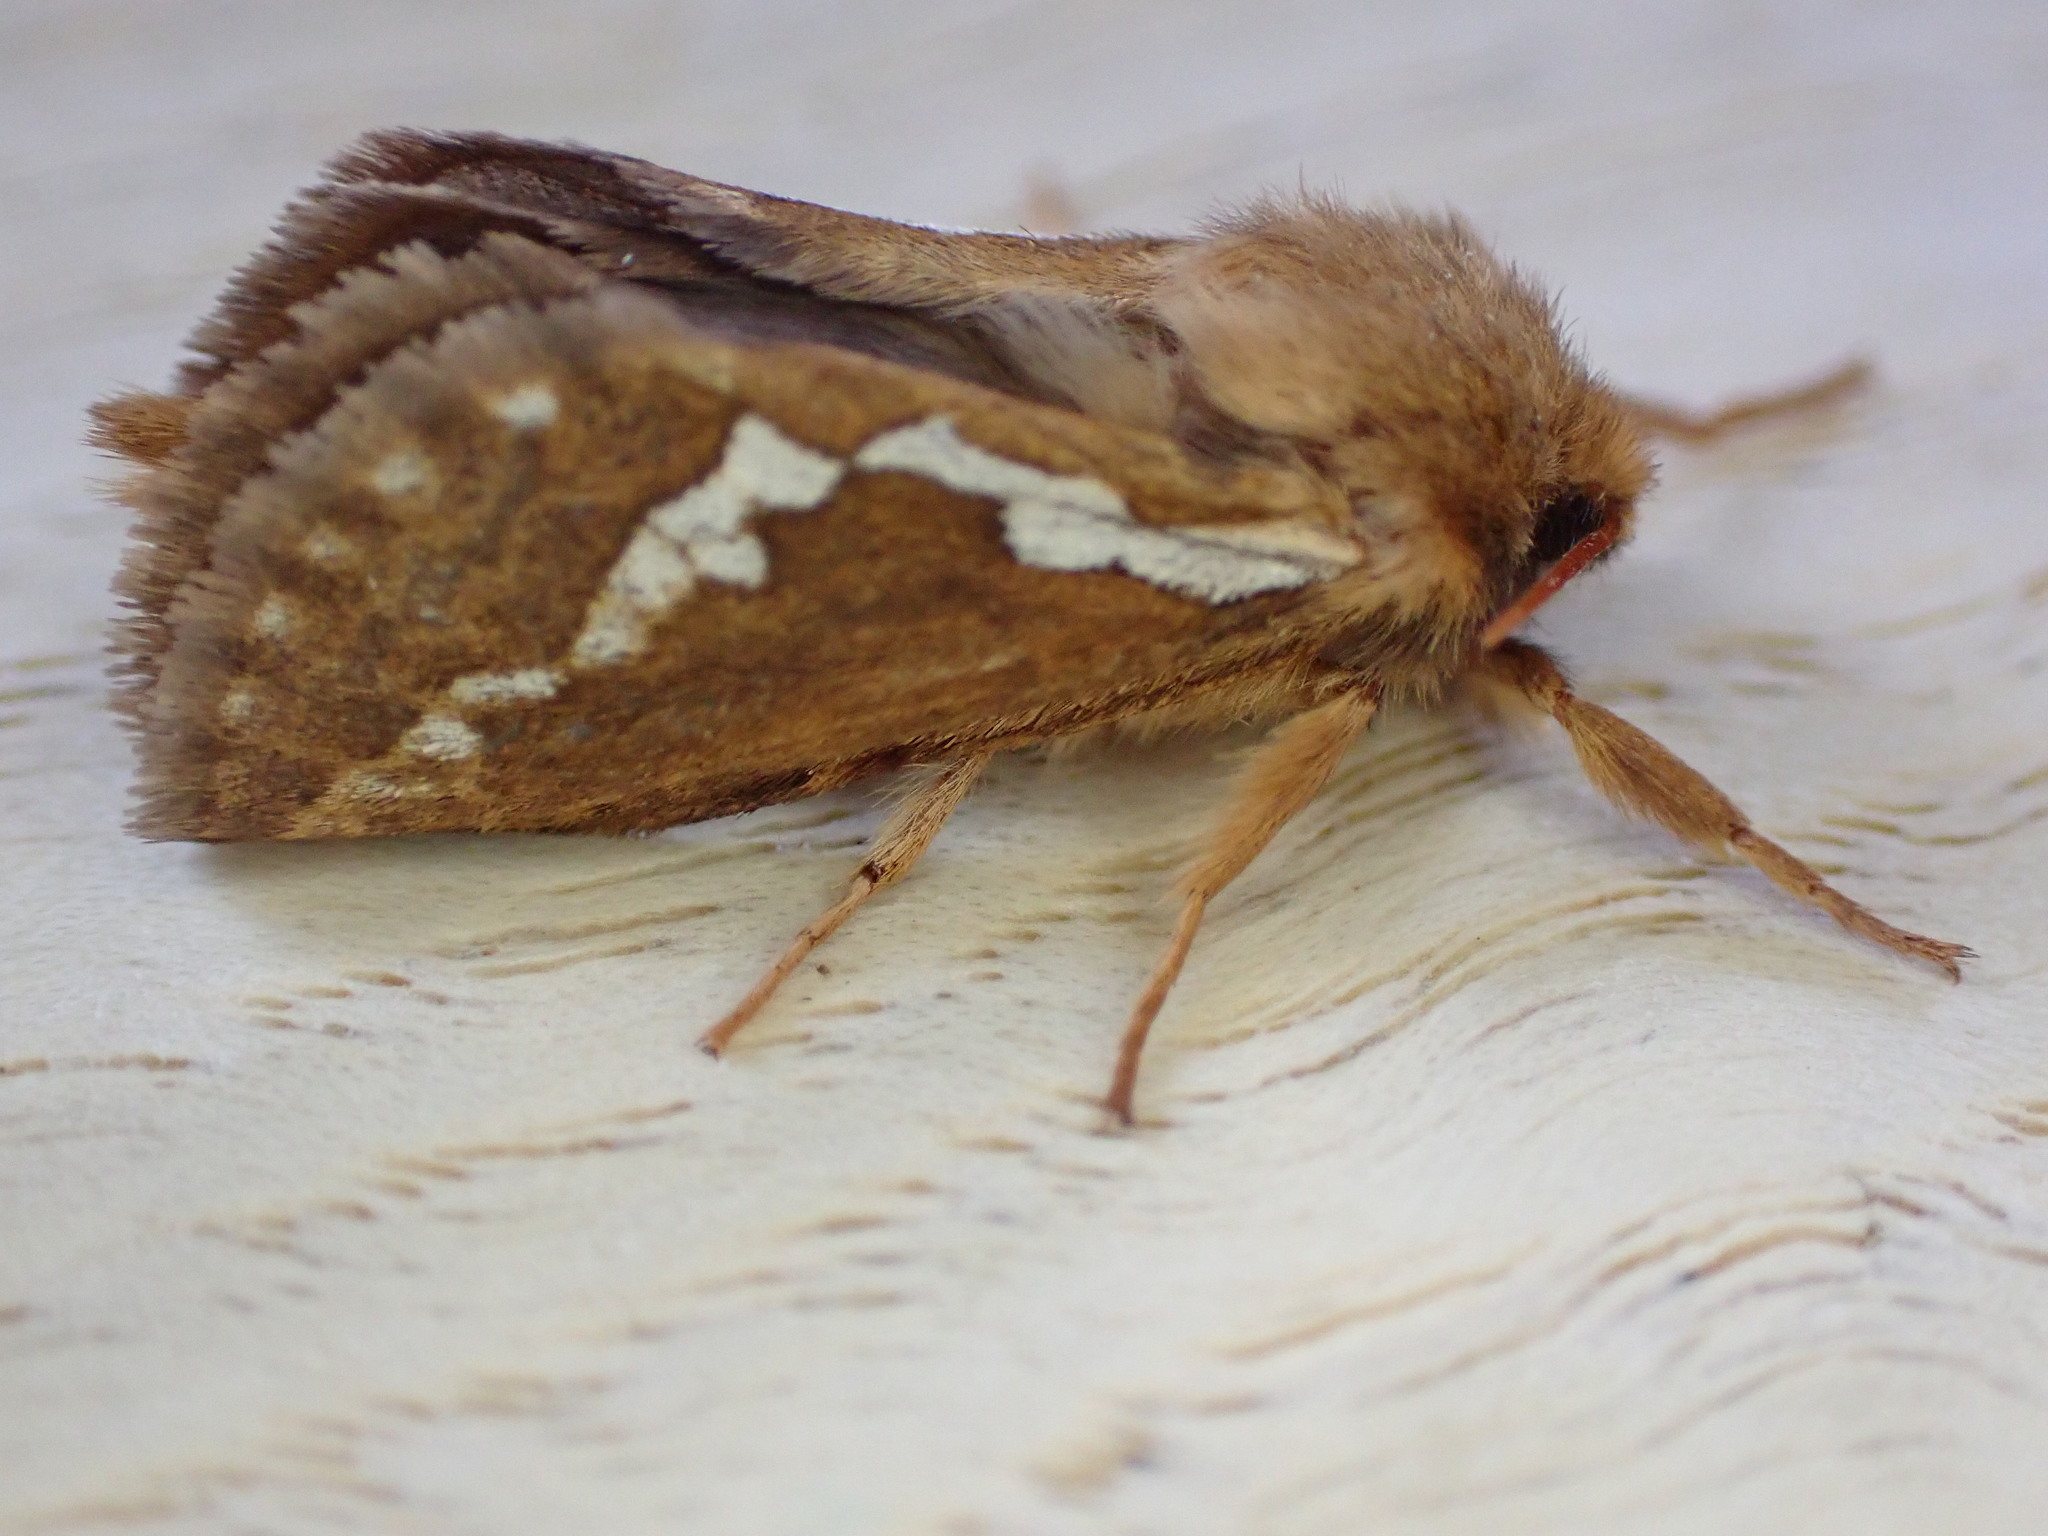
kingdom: Animalia
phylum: Arthropoda
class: Insecta
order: Lepidoptera
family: Hepialidae
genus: Korscheltellus
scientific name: Korscheltellus lupulina
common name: Common swift
